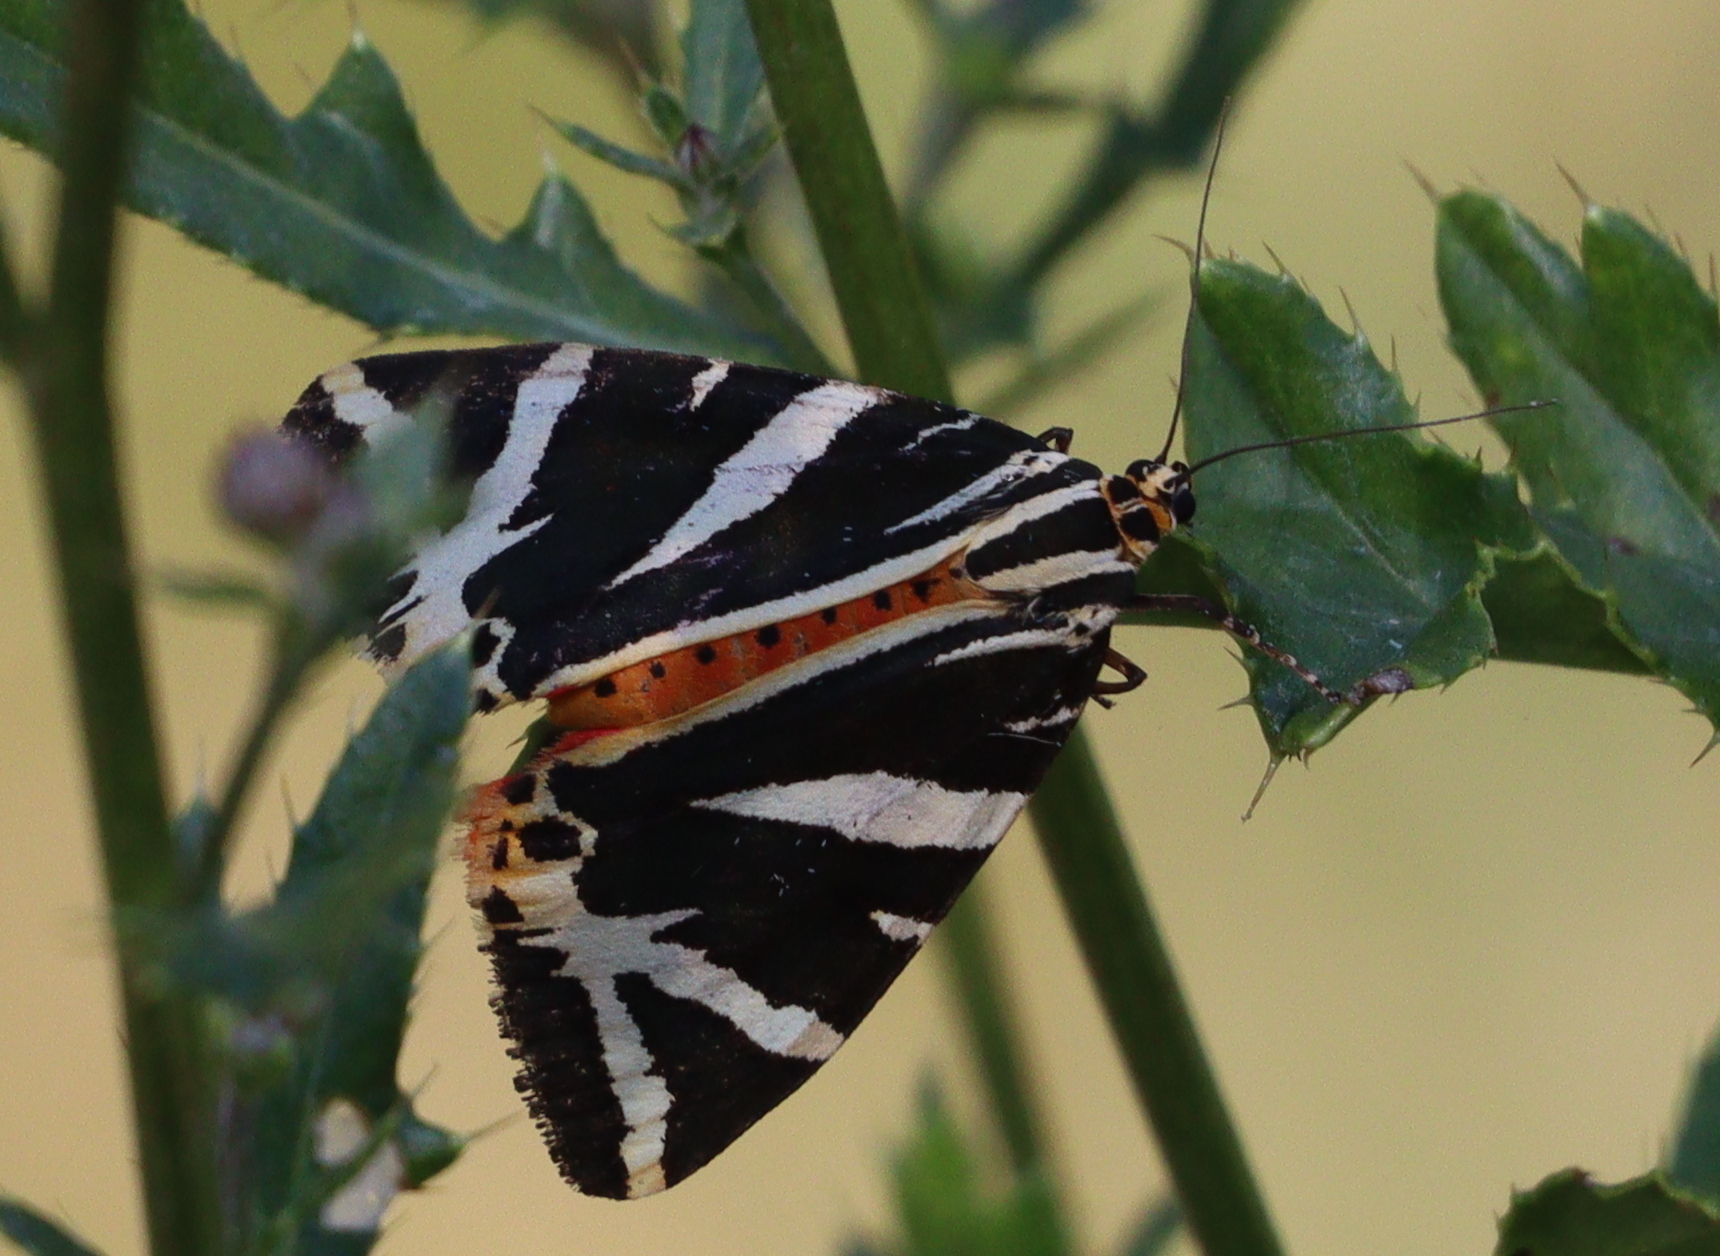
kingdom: Animalia
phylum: Arthropoda
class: Insecta
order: Lepidoptera
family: Erebidae
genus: Euplagia
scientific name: Euplagia quadripunctaria
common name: Jersey tiger
